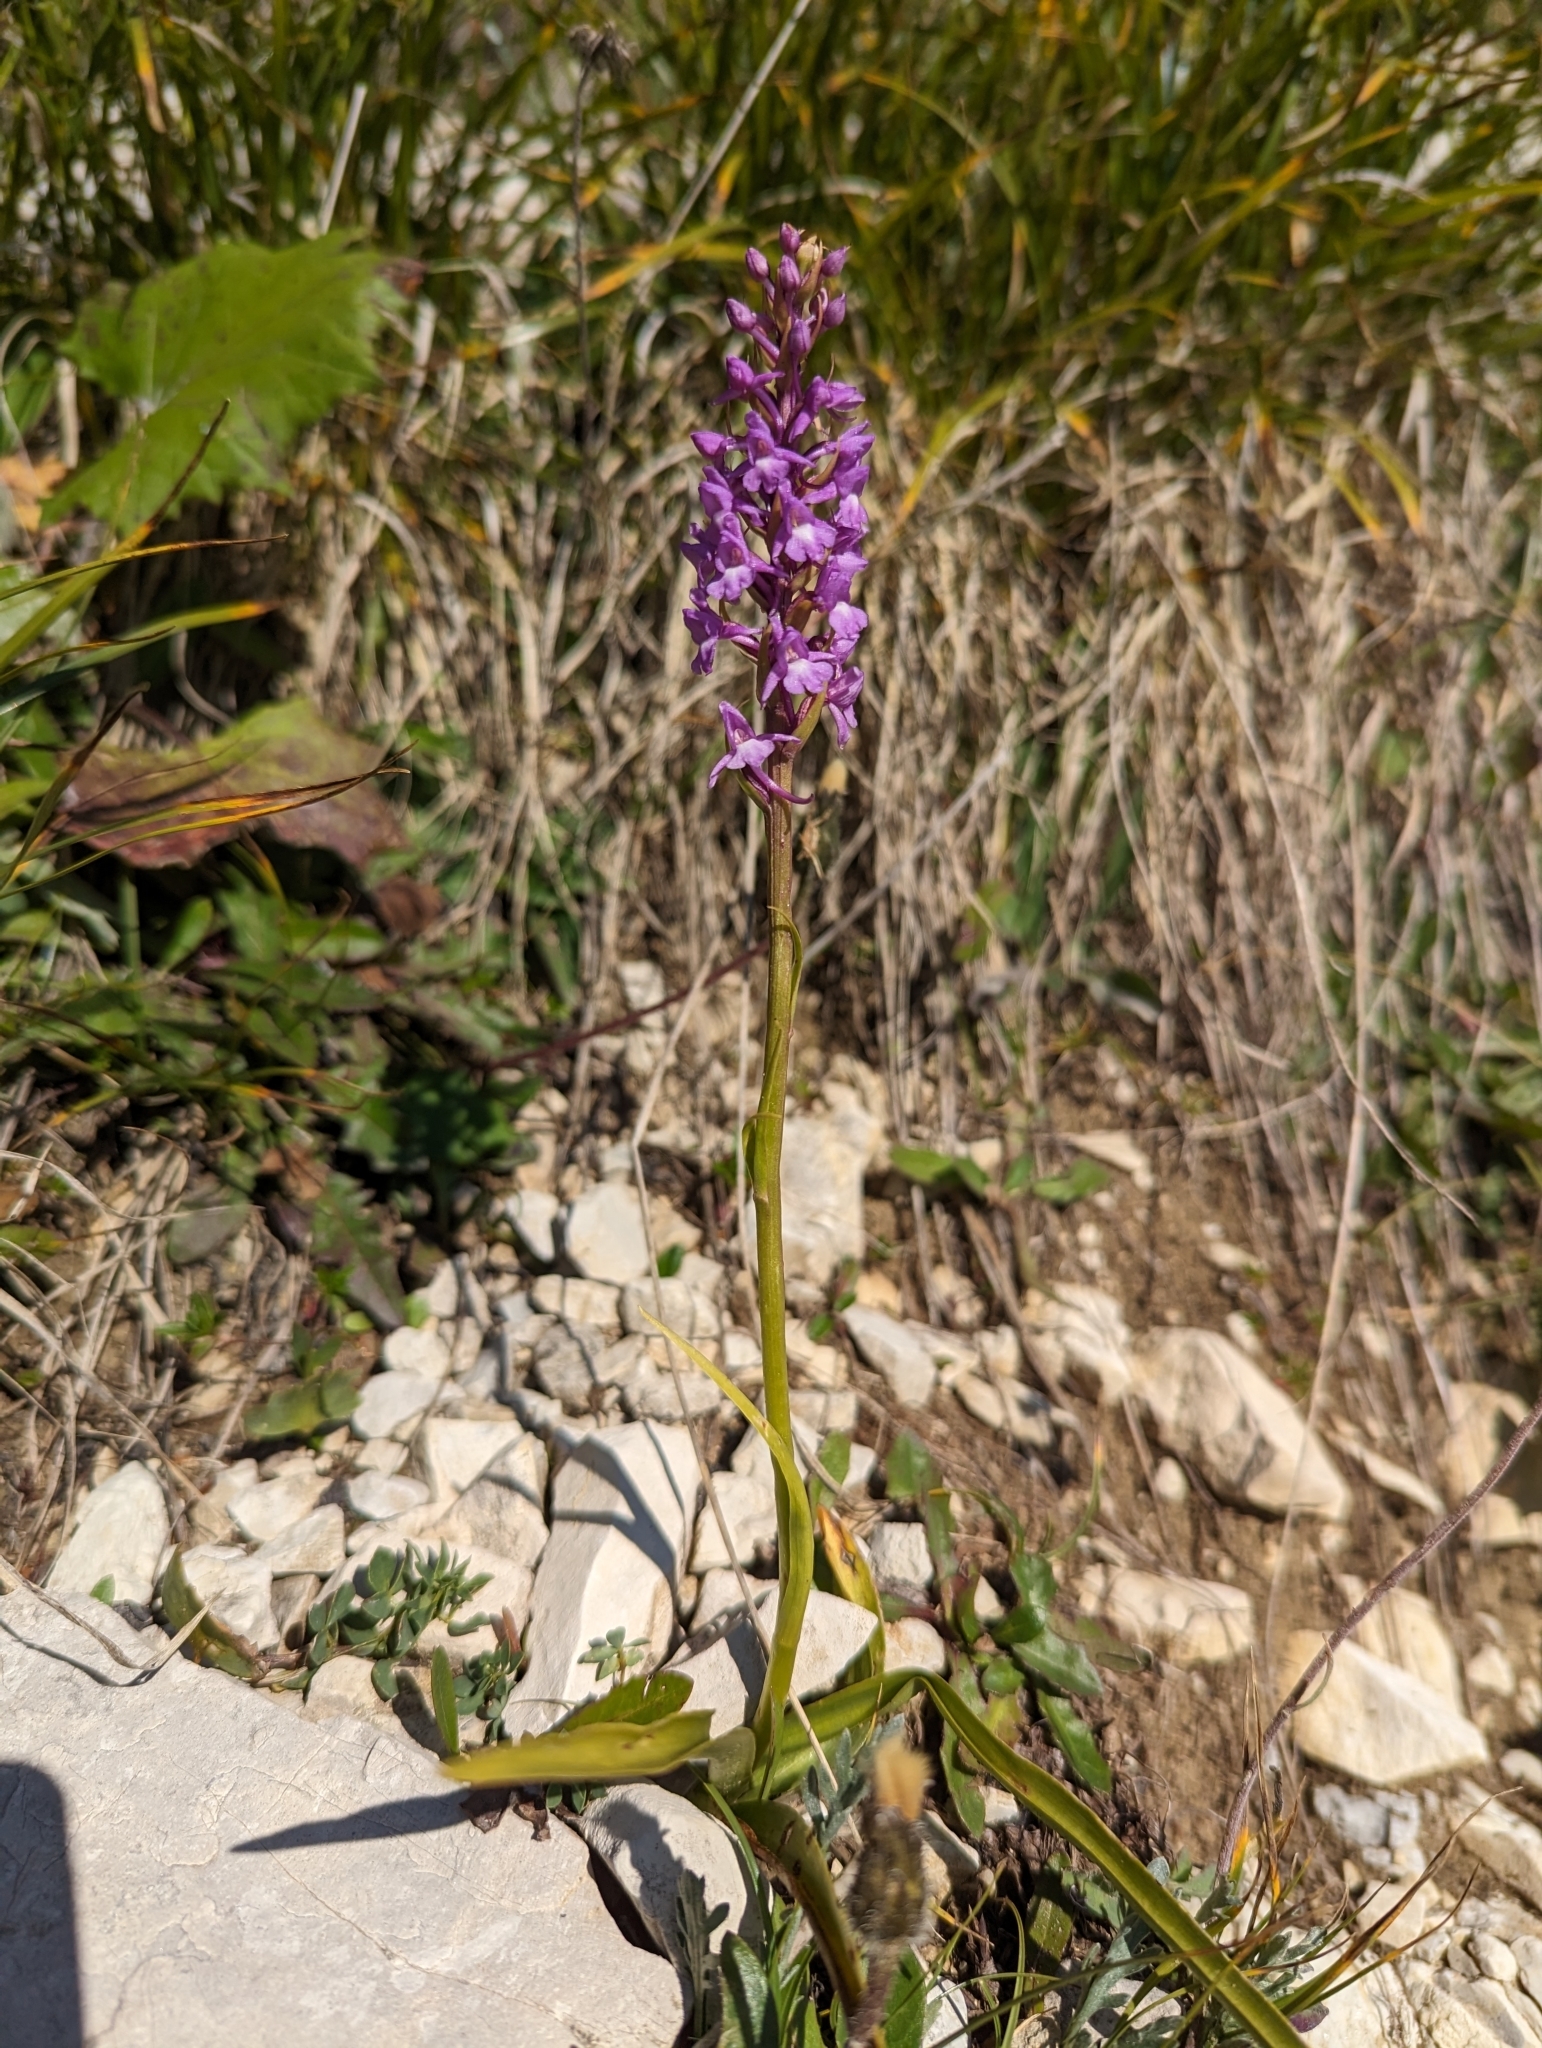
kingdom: Plantae
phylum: Tracheophyta
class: Liliopsida
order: Asparagales
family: Orchidaceae
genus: Gymnadenia
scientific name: Gymnadenia conopsea
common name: Fragrant orchid
